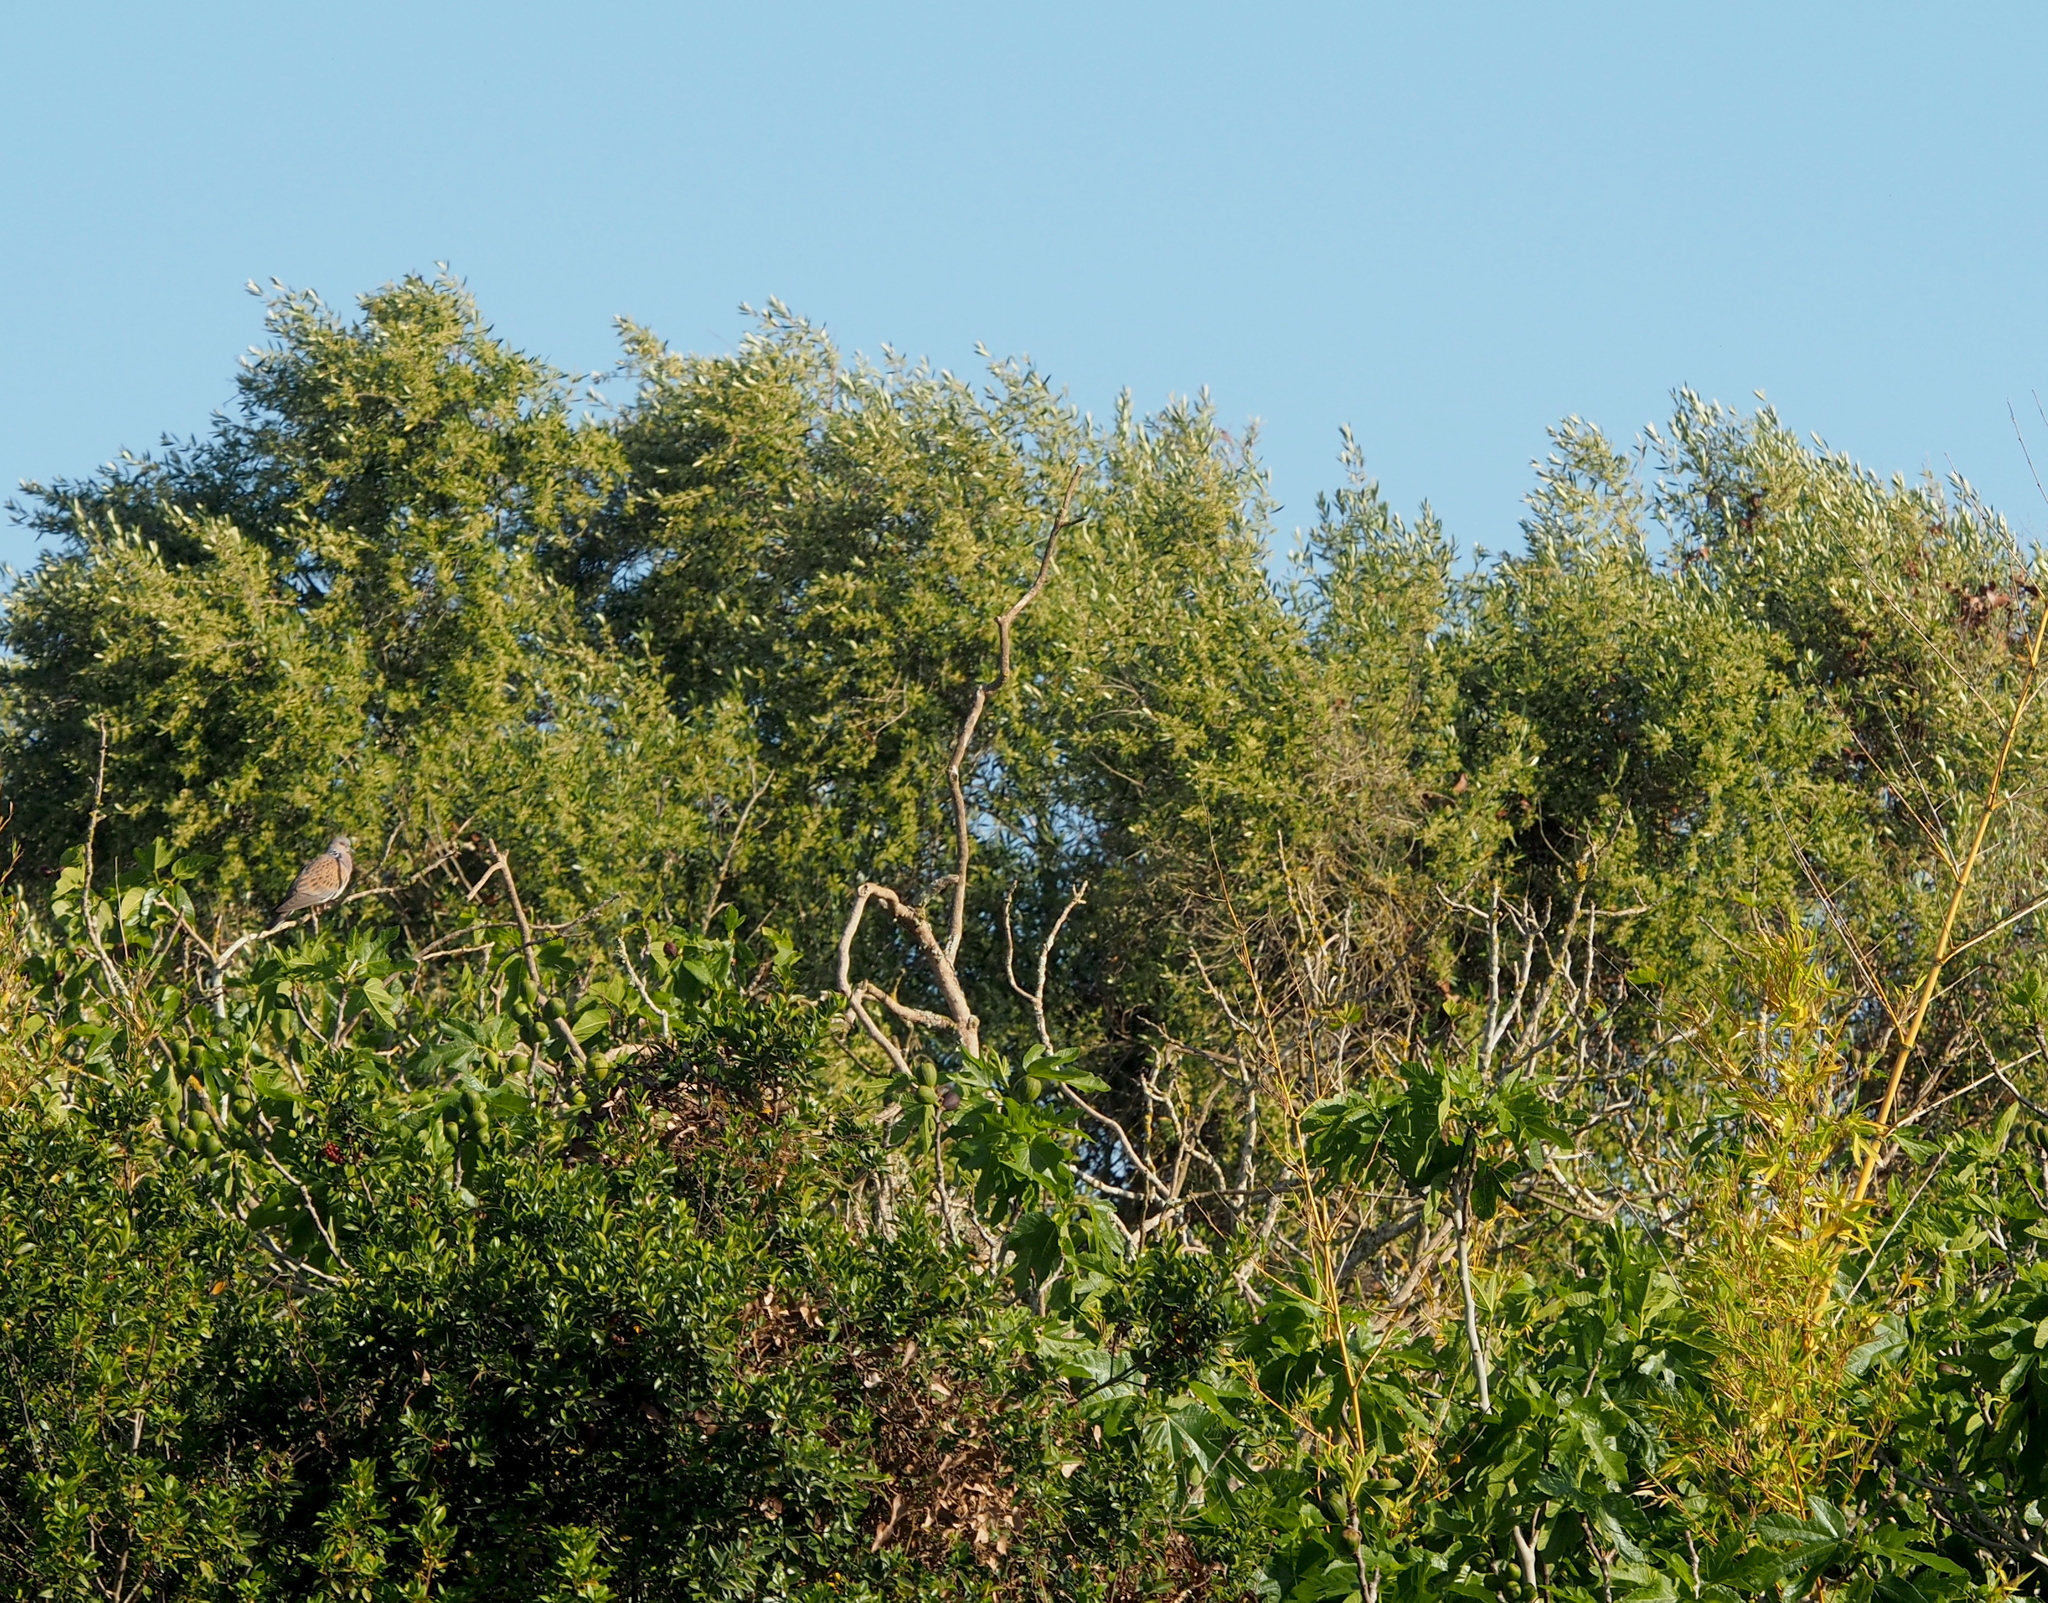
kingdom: Animalia
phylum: Chordata
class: Aves
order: Columbiformes
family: Columbidae
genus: Streptopelia
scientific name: Streptopelia turtur
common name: European turtle dove
